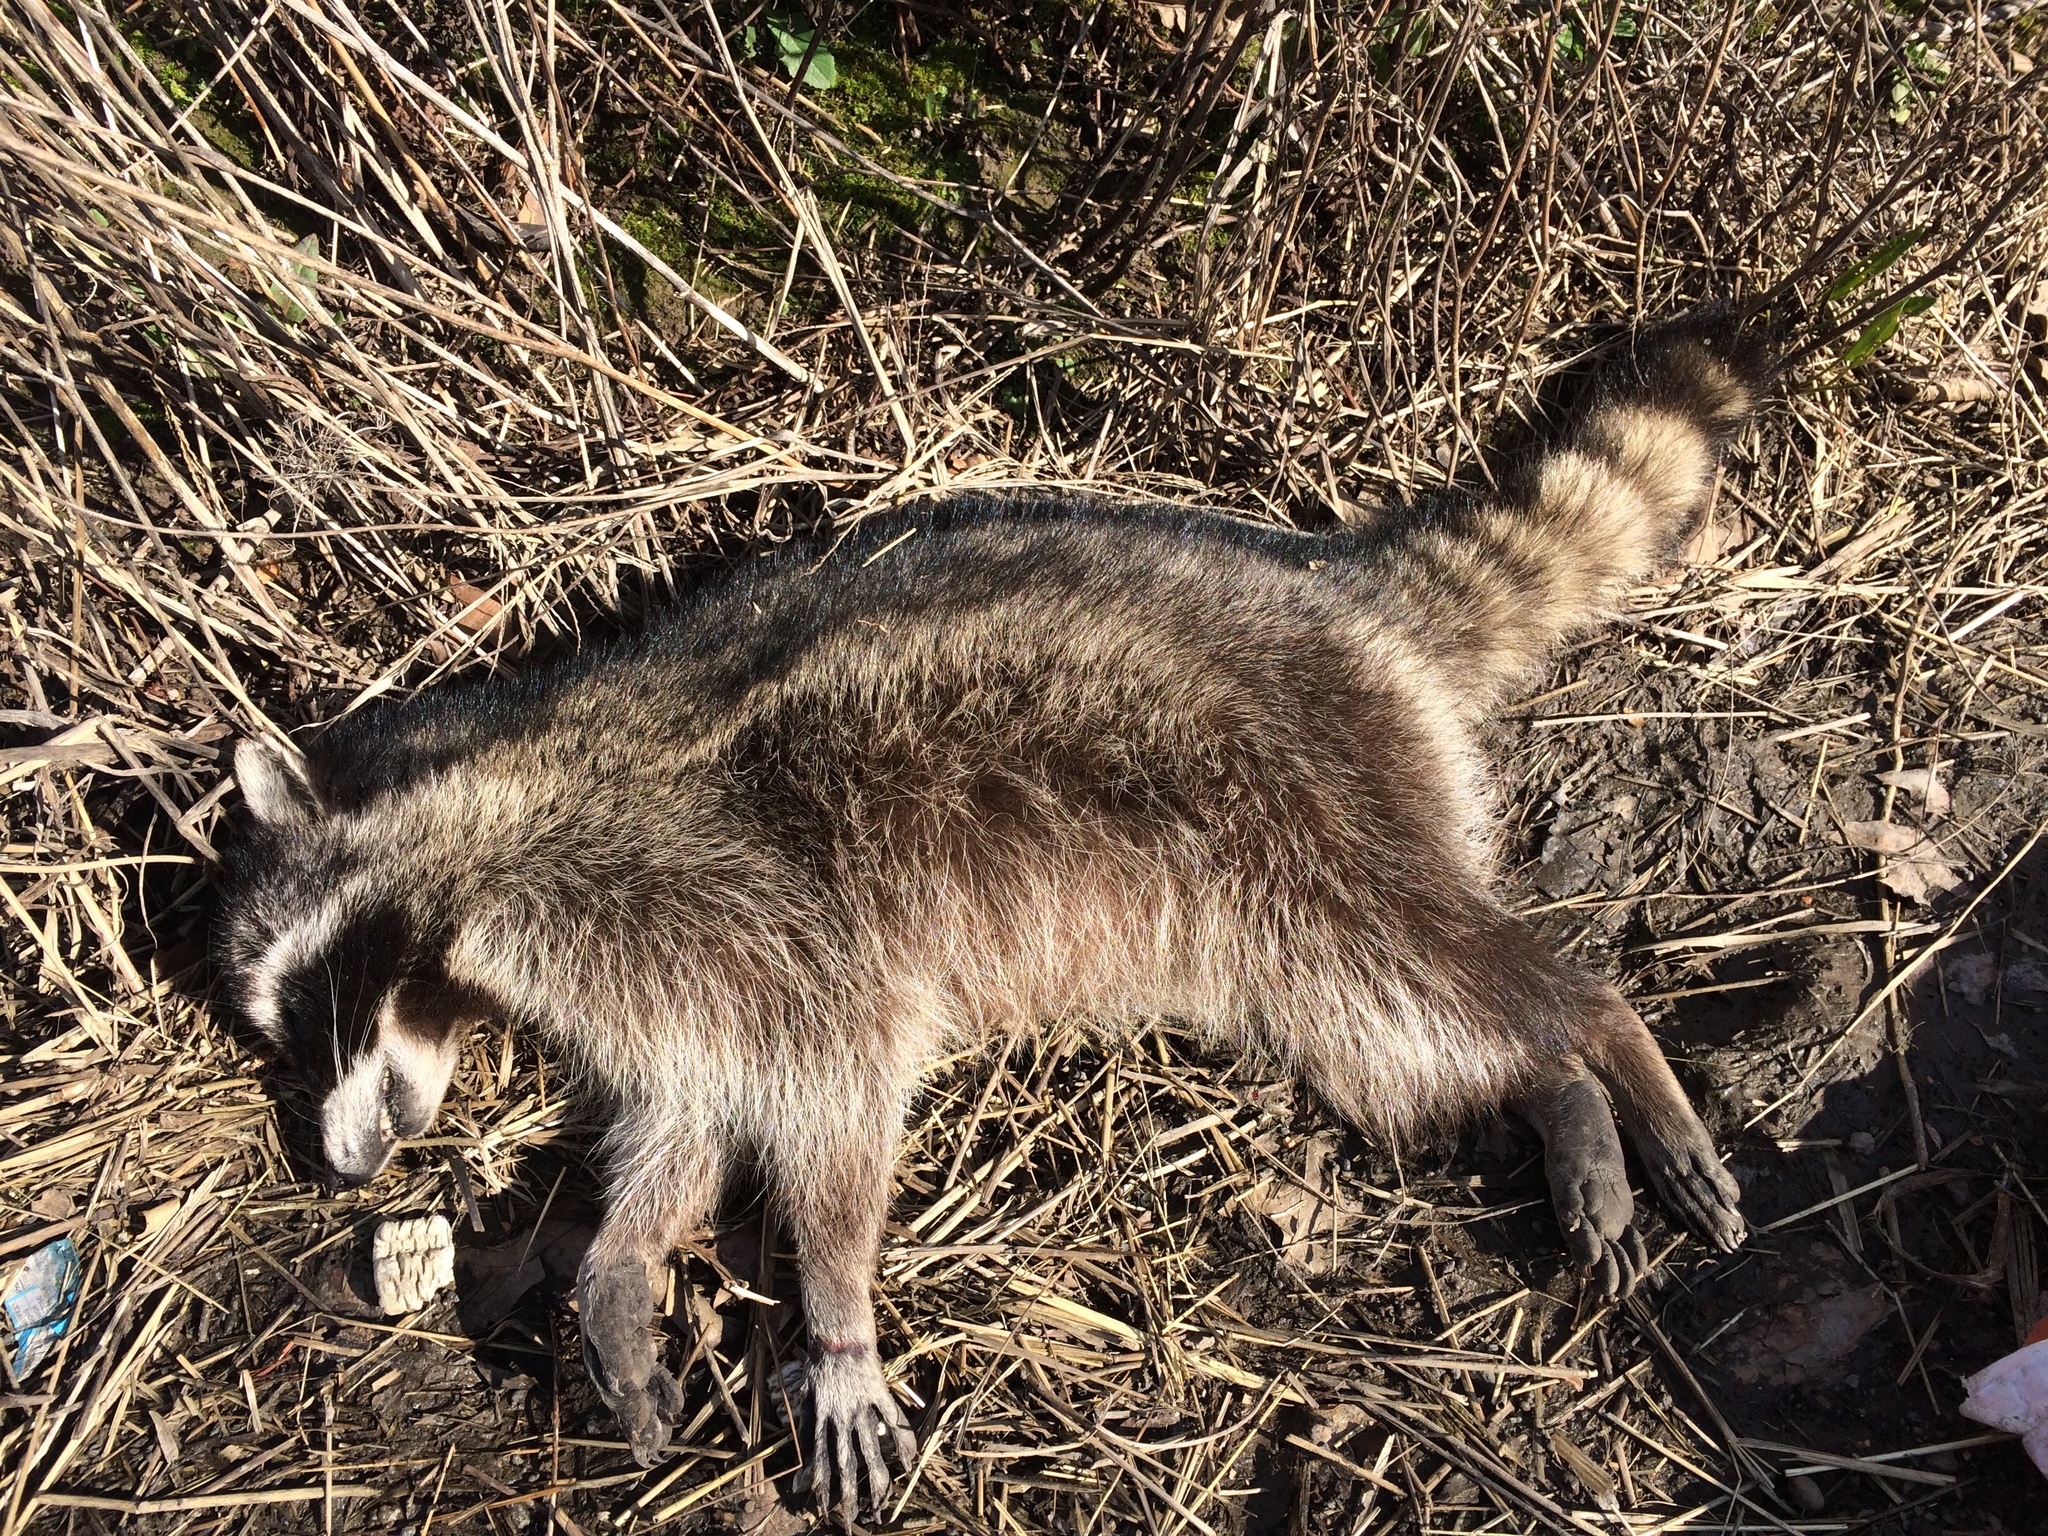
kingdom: Animalia
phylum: Chordata
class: Mammalia
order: Carnivora
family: Procyonidae
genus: Procyon
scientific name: Procyon lotor
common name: Raccoon
